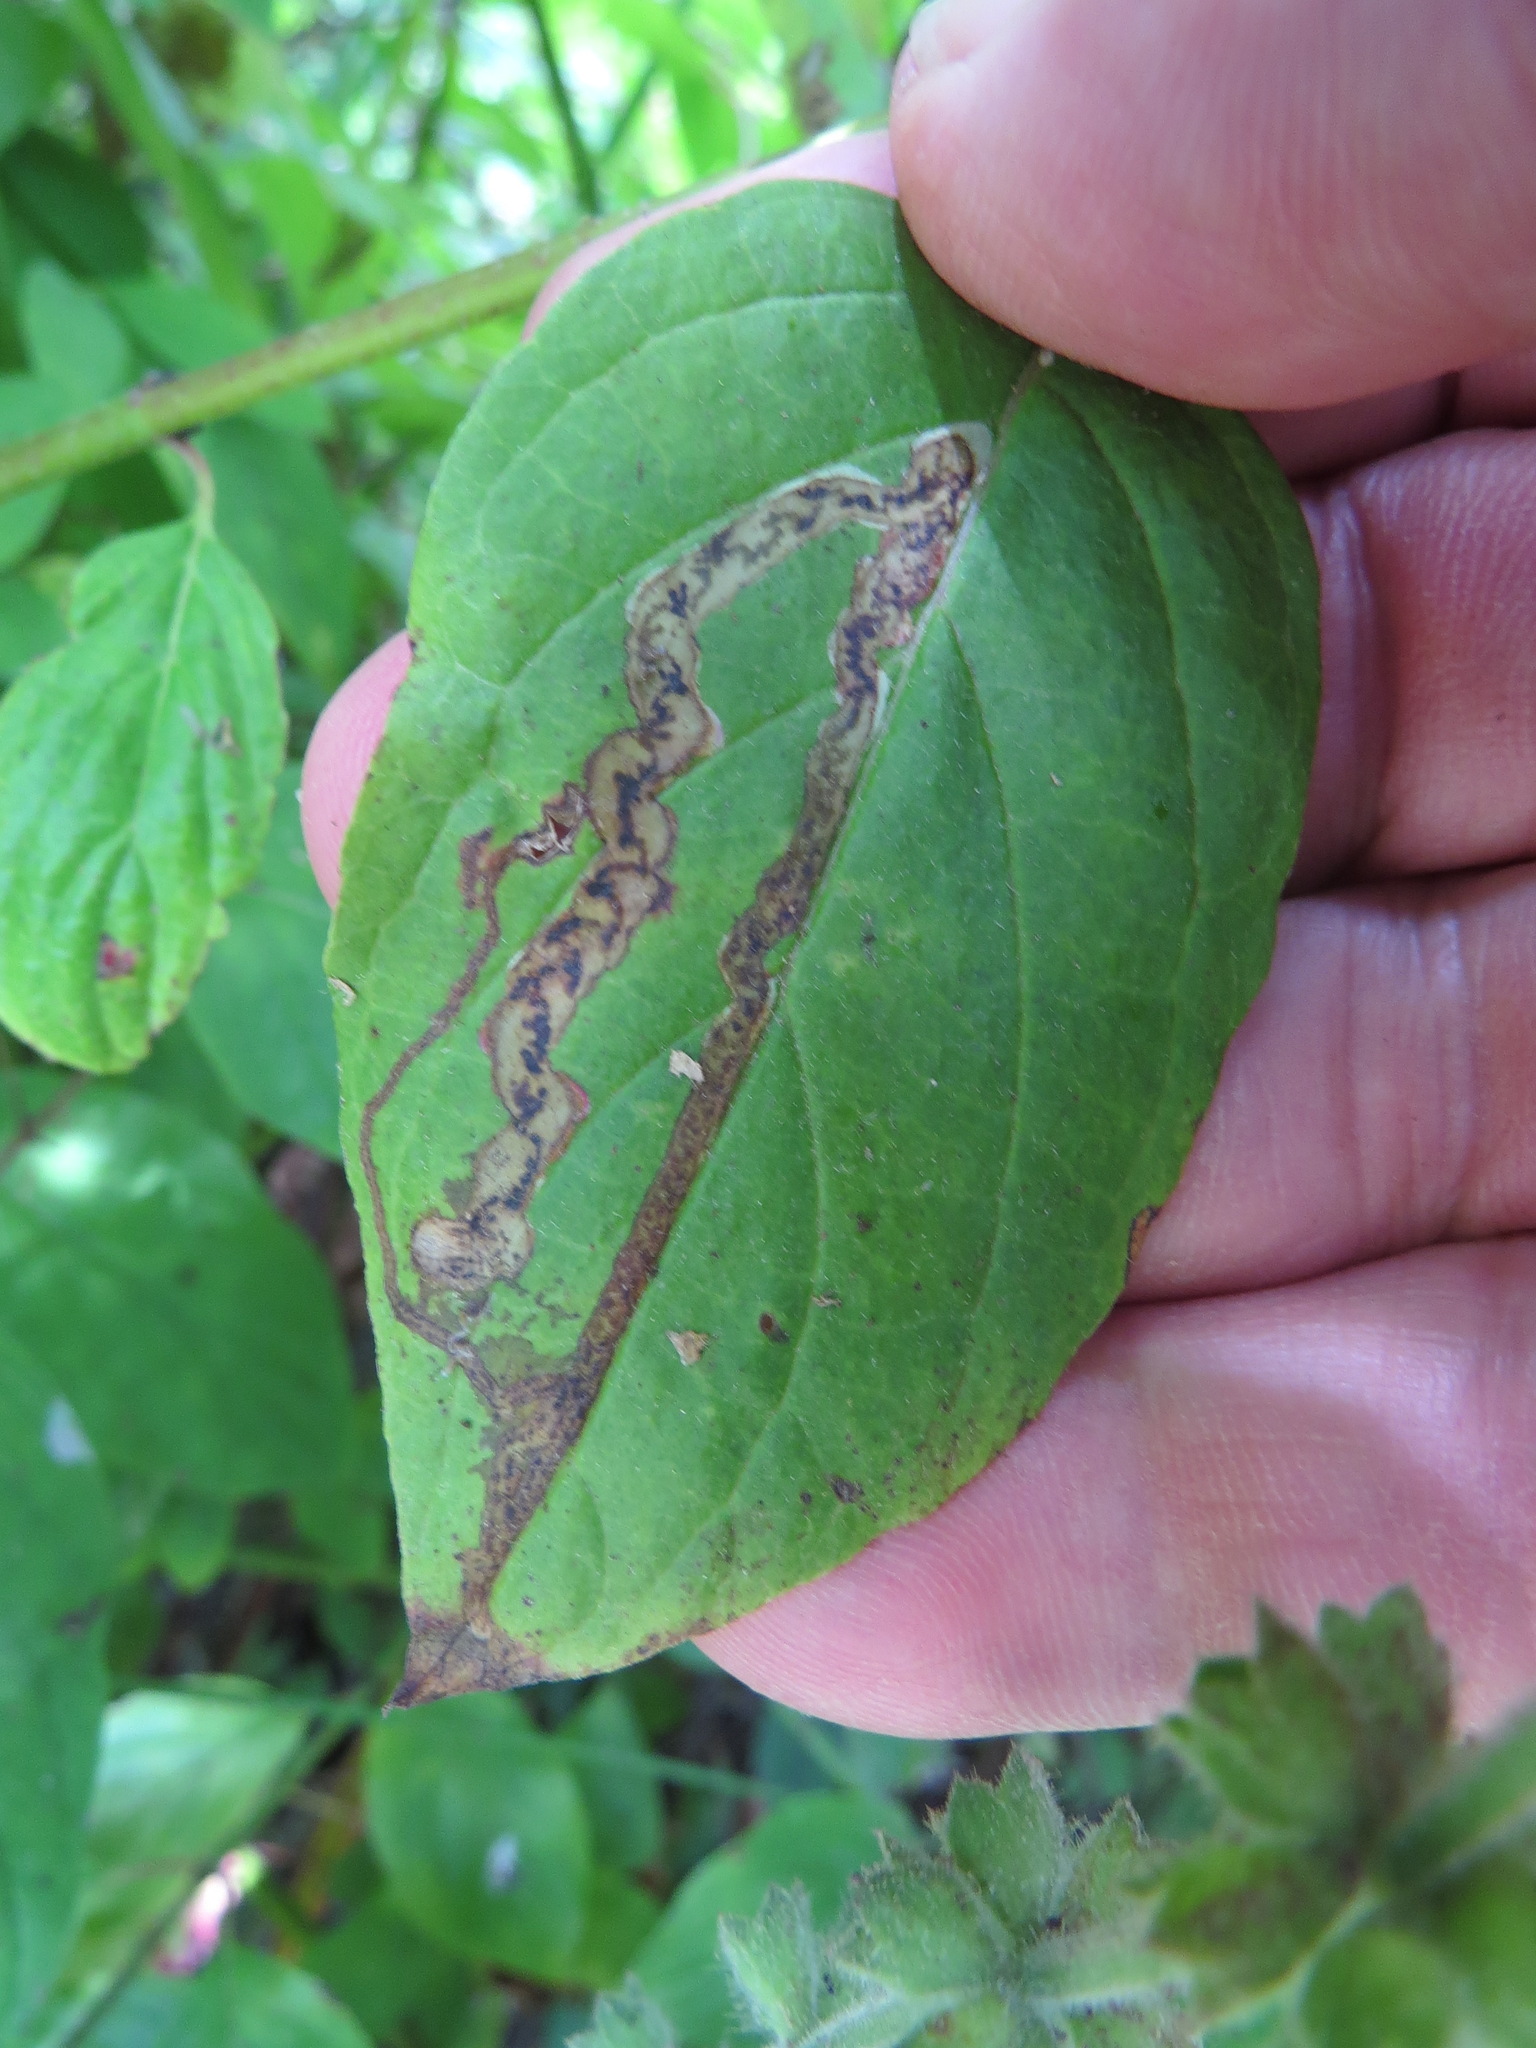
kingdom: Animalia
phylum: Arthropoda
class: Insecta
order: Diptera
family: Agromyzidae
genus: Phytomyza
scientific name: Phytomyza agromyzina
